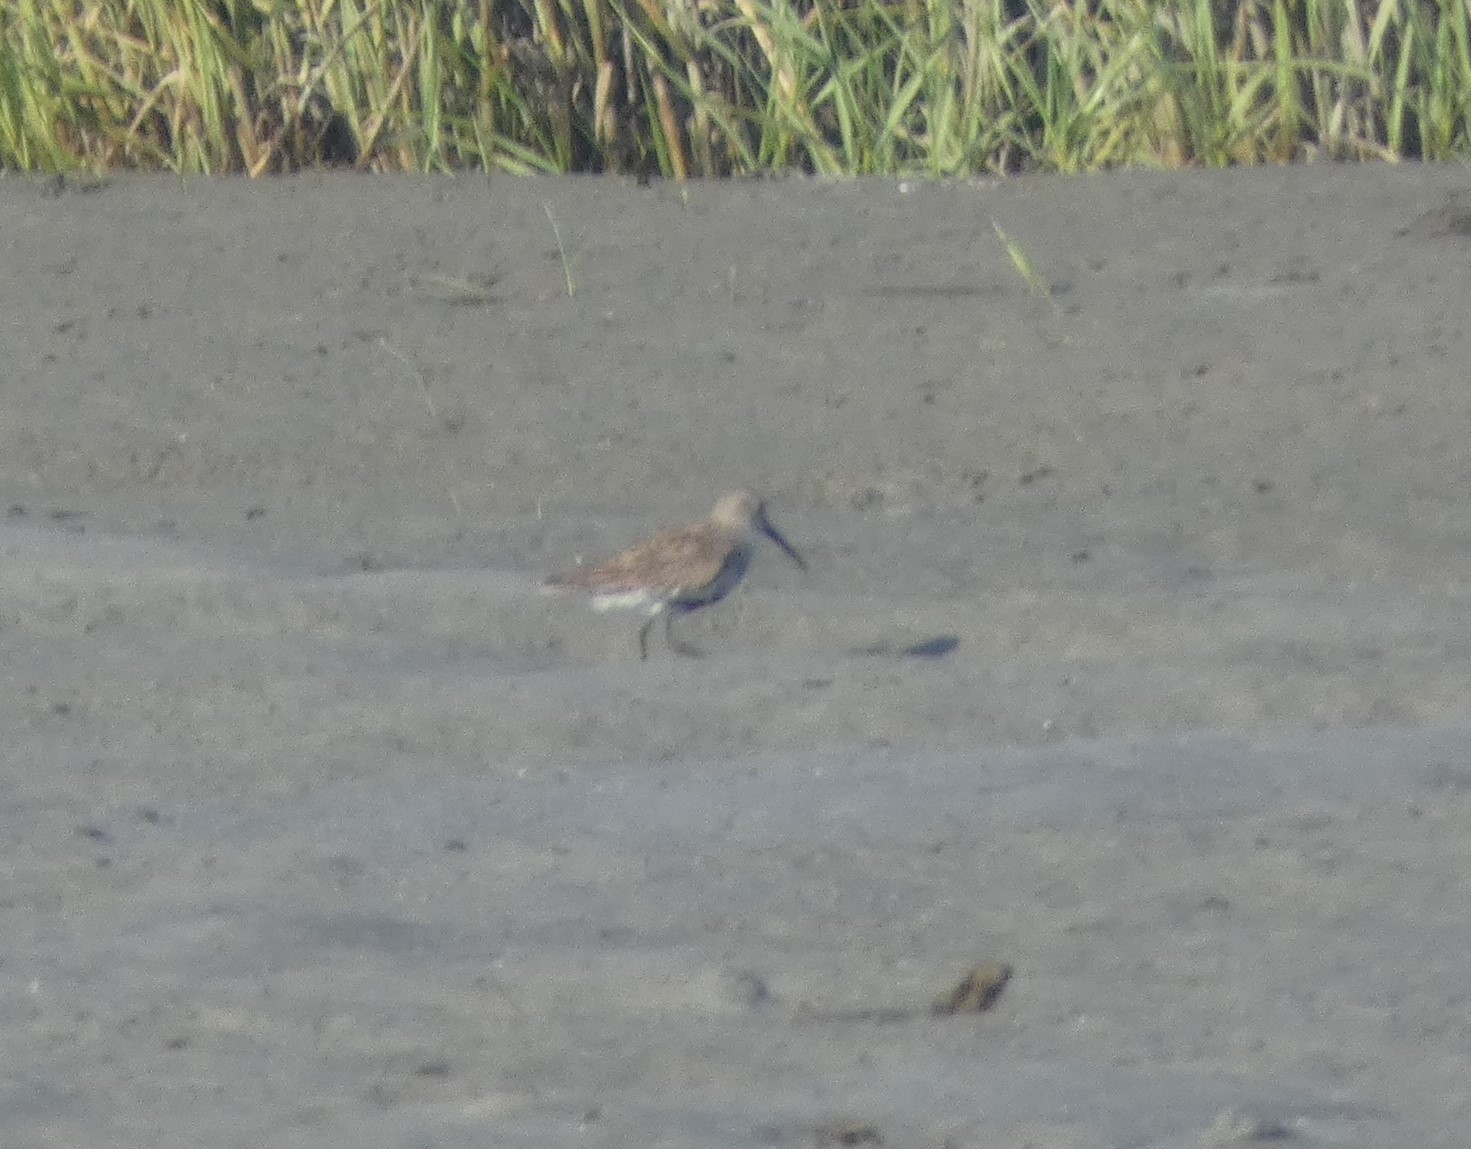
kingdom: Animalia
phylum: Chordata
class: Aves
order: Charadriiformes
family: Scolopacidae
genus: Calidris
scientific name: Calidris alpina
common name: Dunlin
